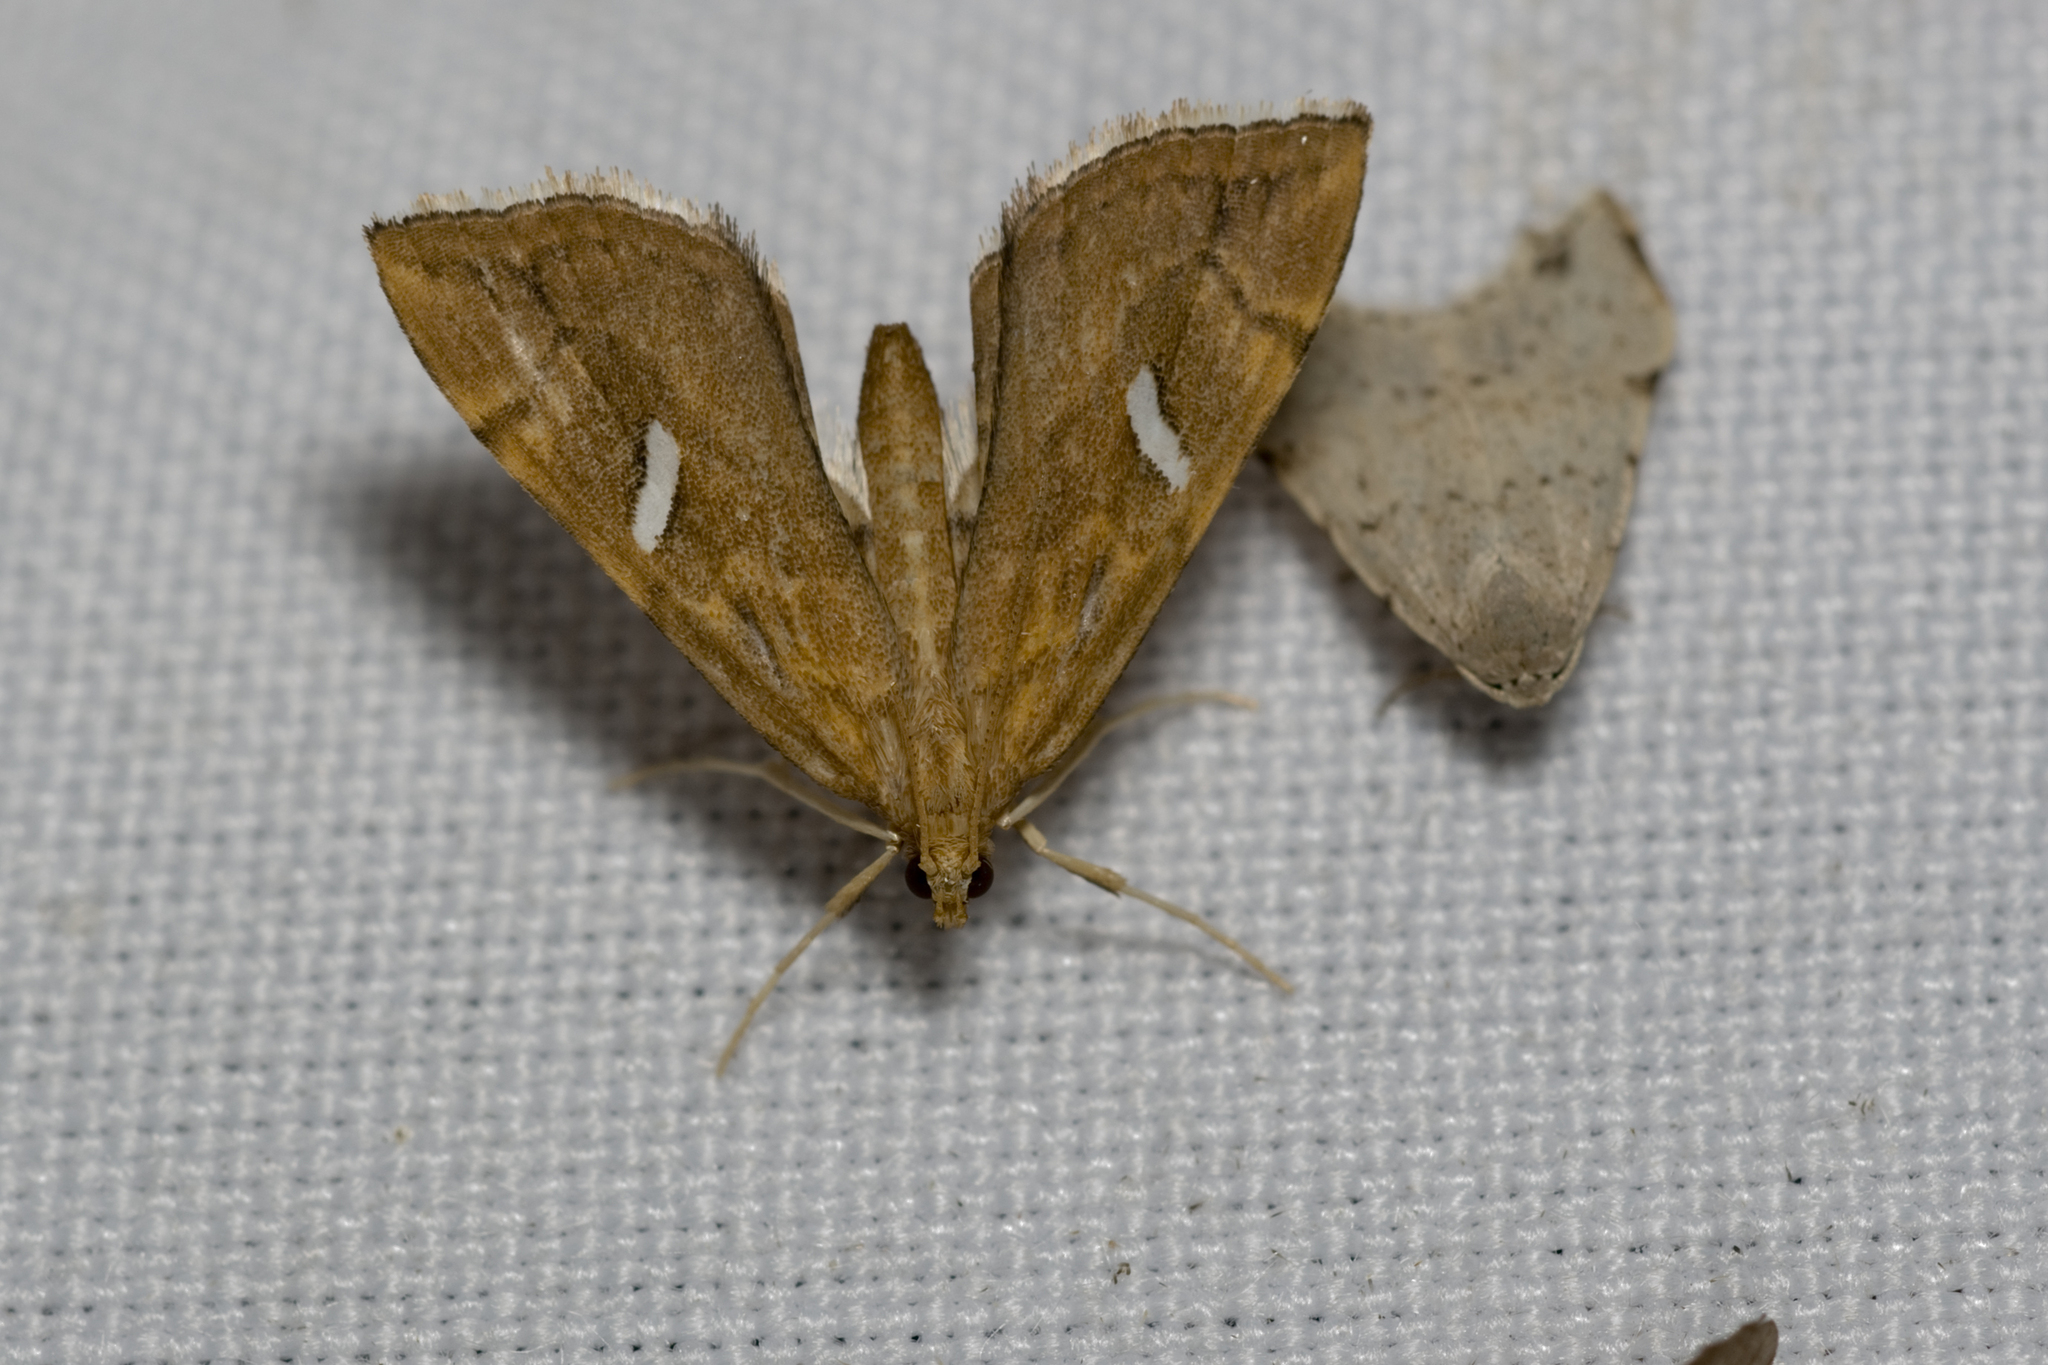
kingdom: Animalia
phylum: Arthropoda
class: Insecta
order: Lepidoptera
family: Pyralidae
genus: Uthinia
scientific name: Uthinia albisignalis
